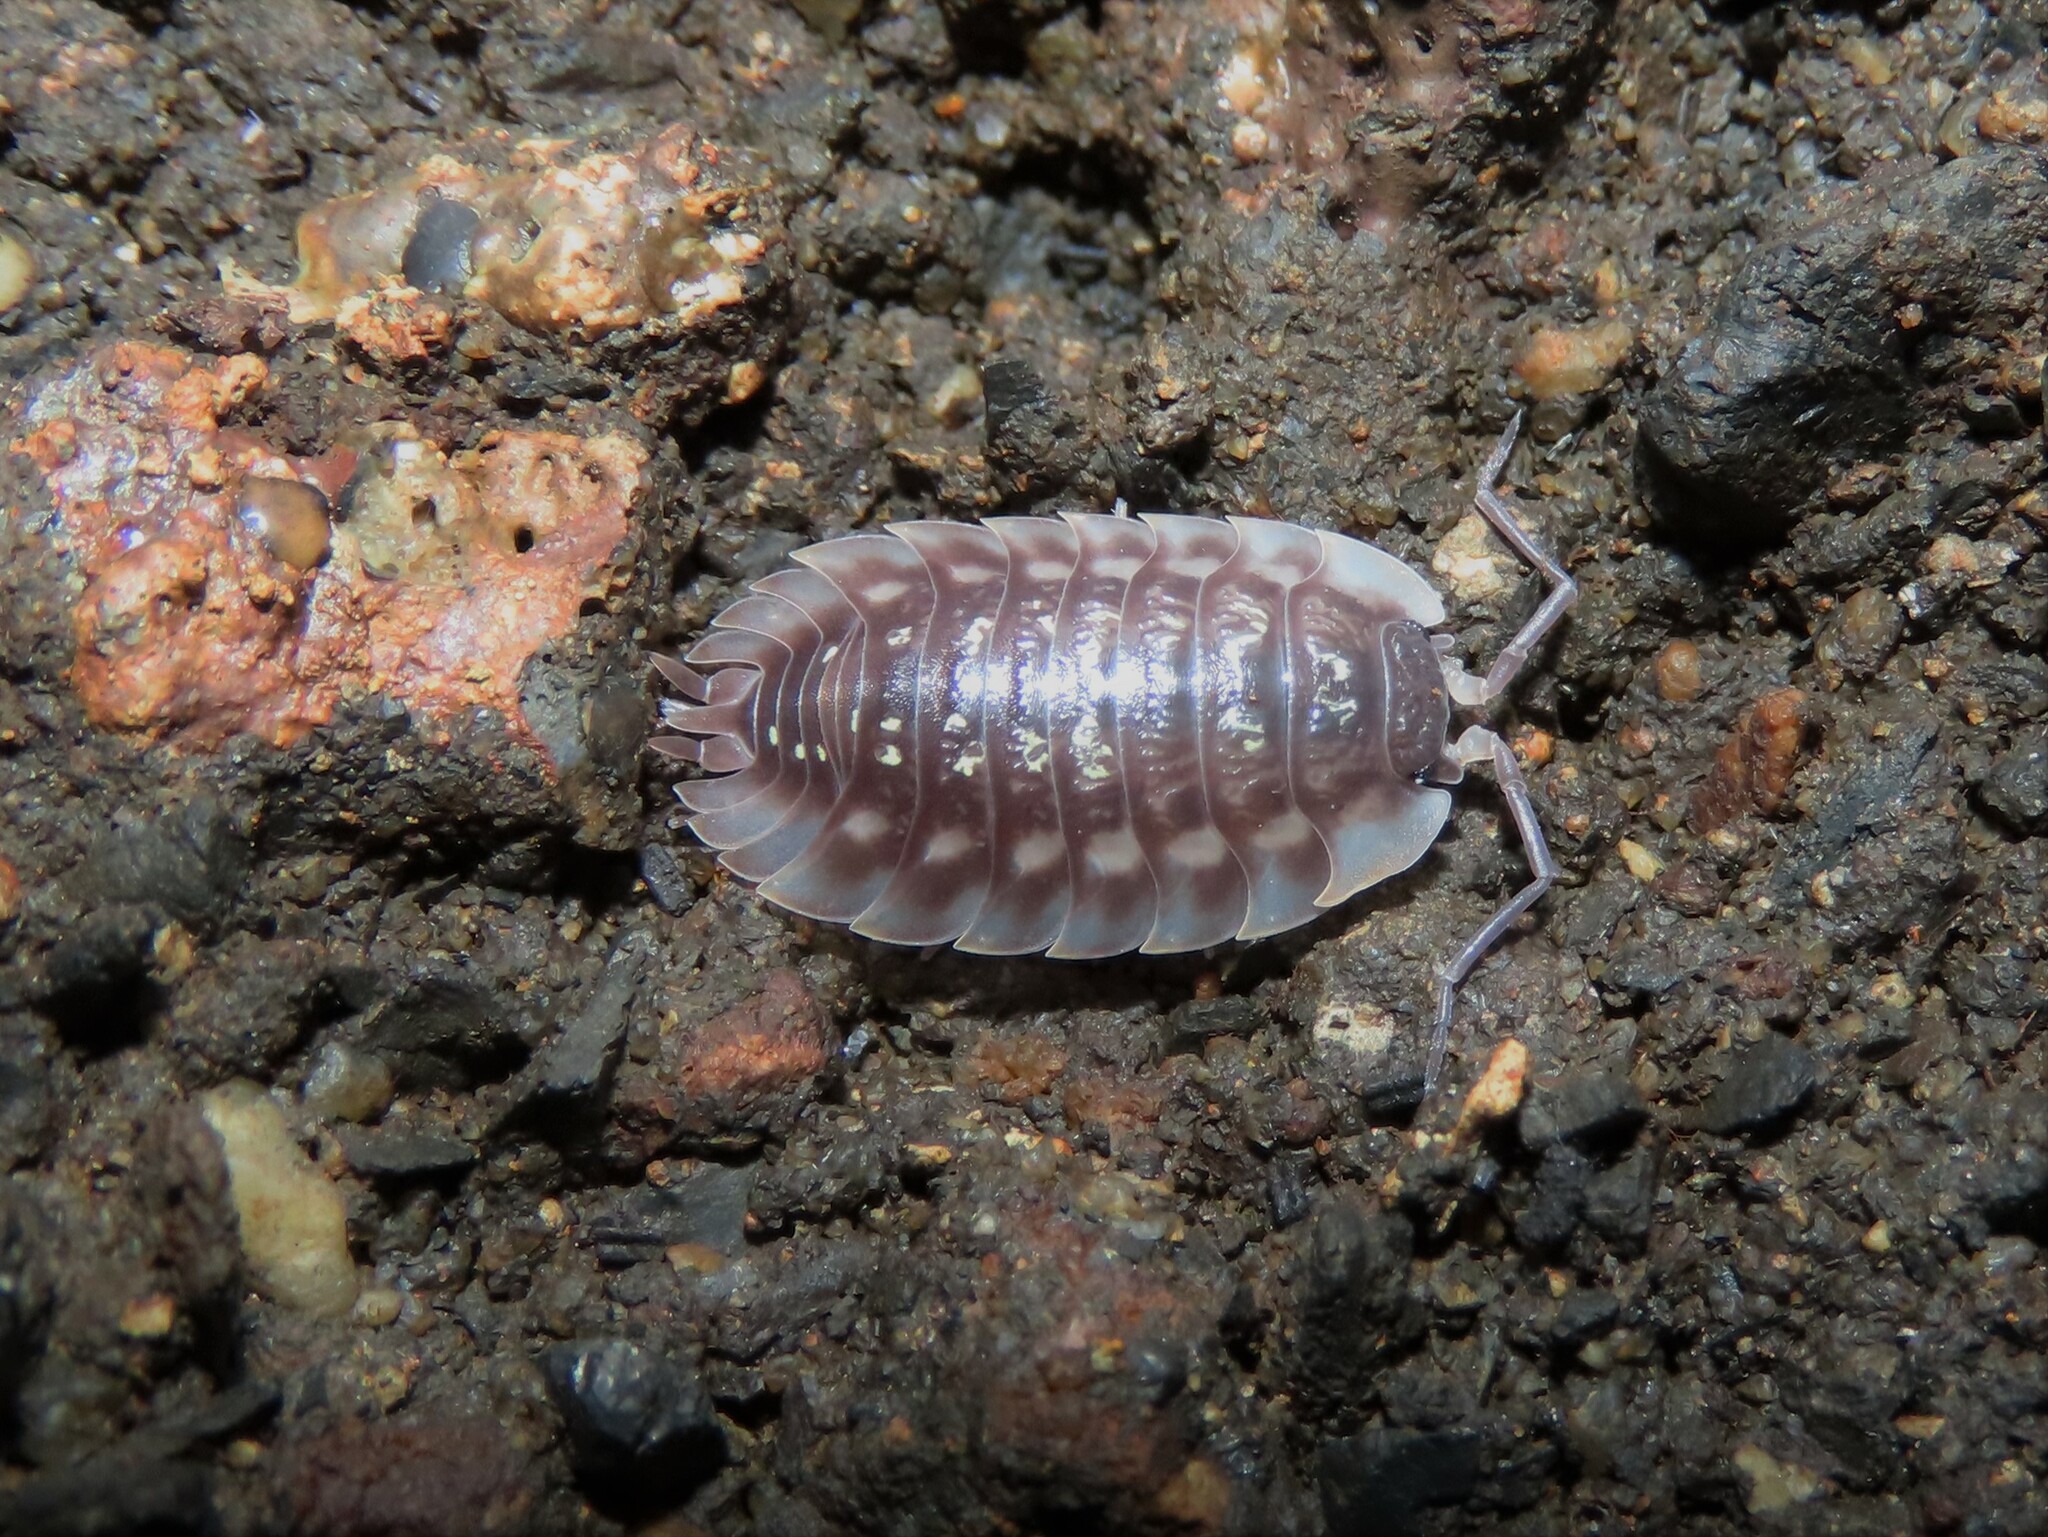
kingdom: Animalia
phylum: Arthropoda
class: Malacostraca
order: Isopoda
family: Oniscidae
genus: Oniscus
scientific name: Oniscus asellus
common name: Common shiny woodlouse
